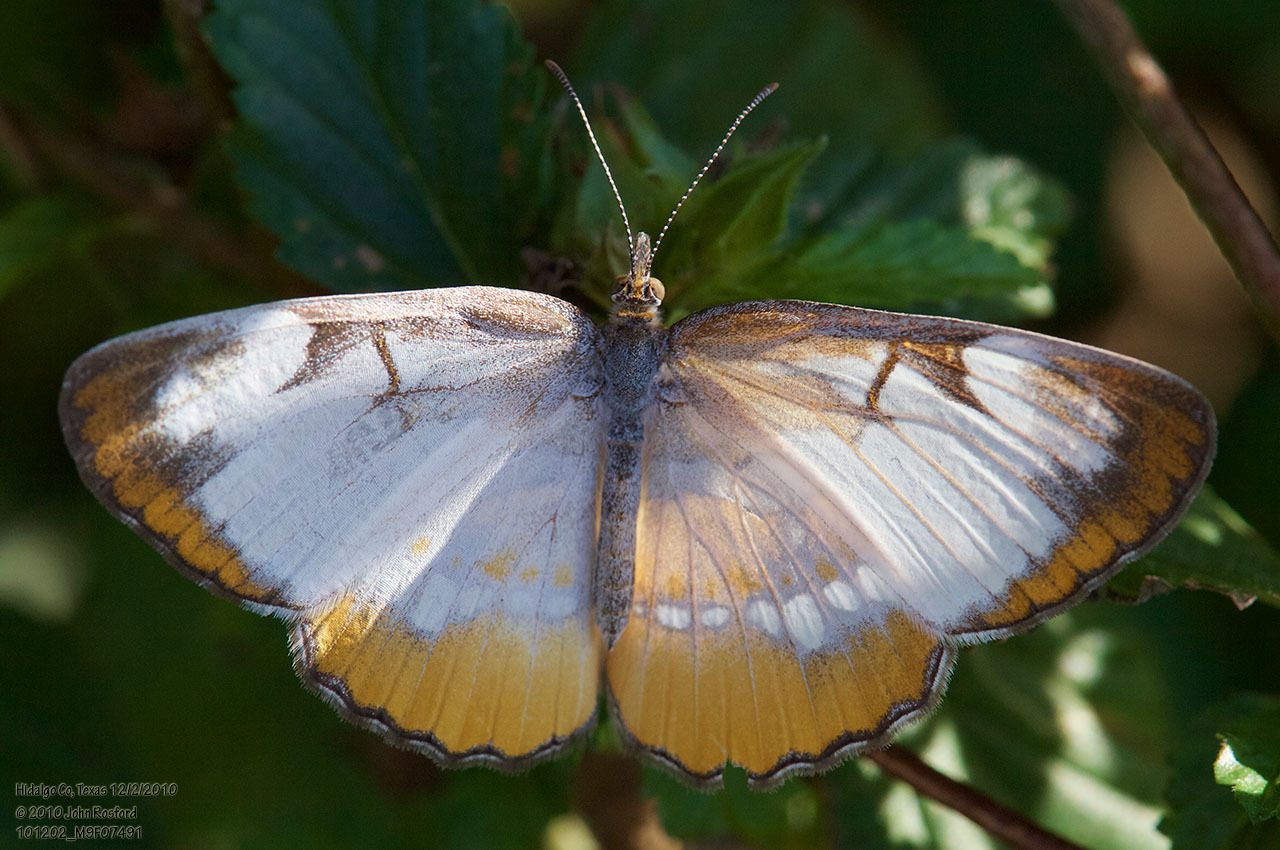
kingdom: Animalia
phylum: Arthropoda
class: Insecta
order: Lepidoptera
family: Nymphalidae
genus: Mestra
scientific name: Mestra amymone
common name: Common mestra
